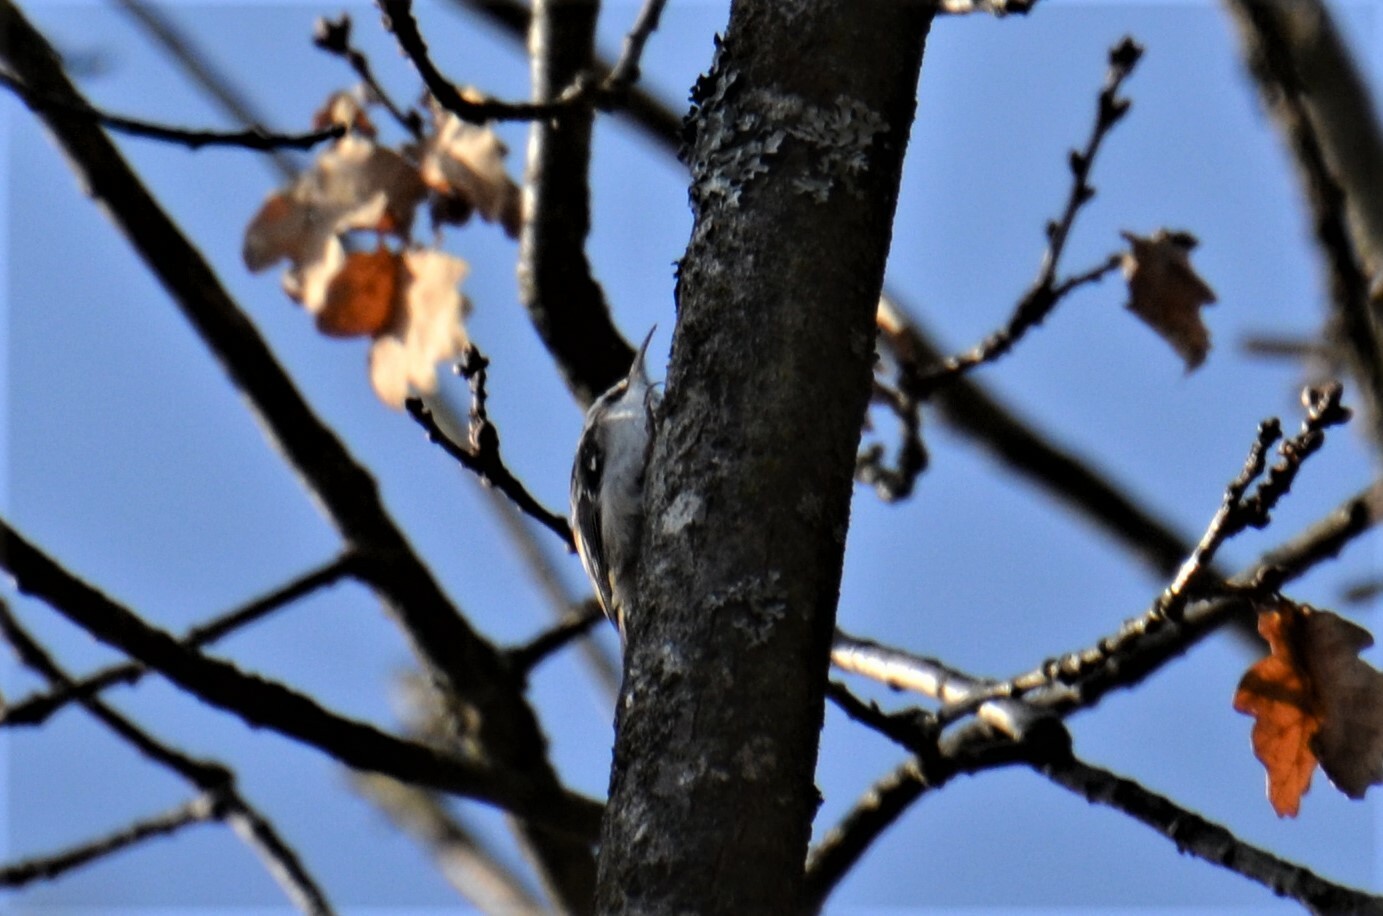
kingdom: Animalia
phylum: Chordata
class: Aves
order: Passeriformes
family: Certhiidae
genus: Certhia
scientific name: Certhia familiaris
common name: Eurasian treecreeper
